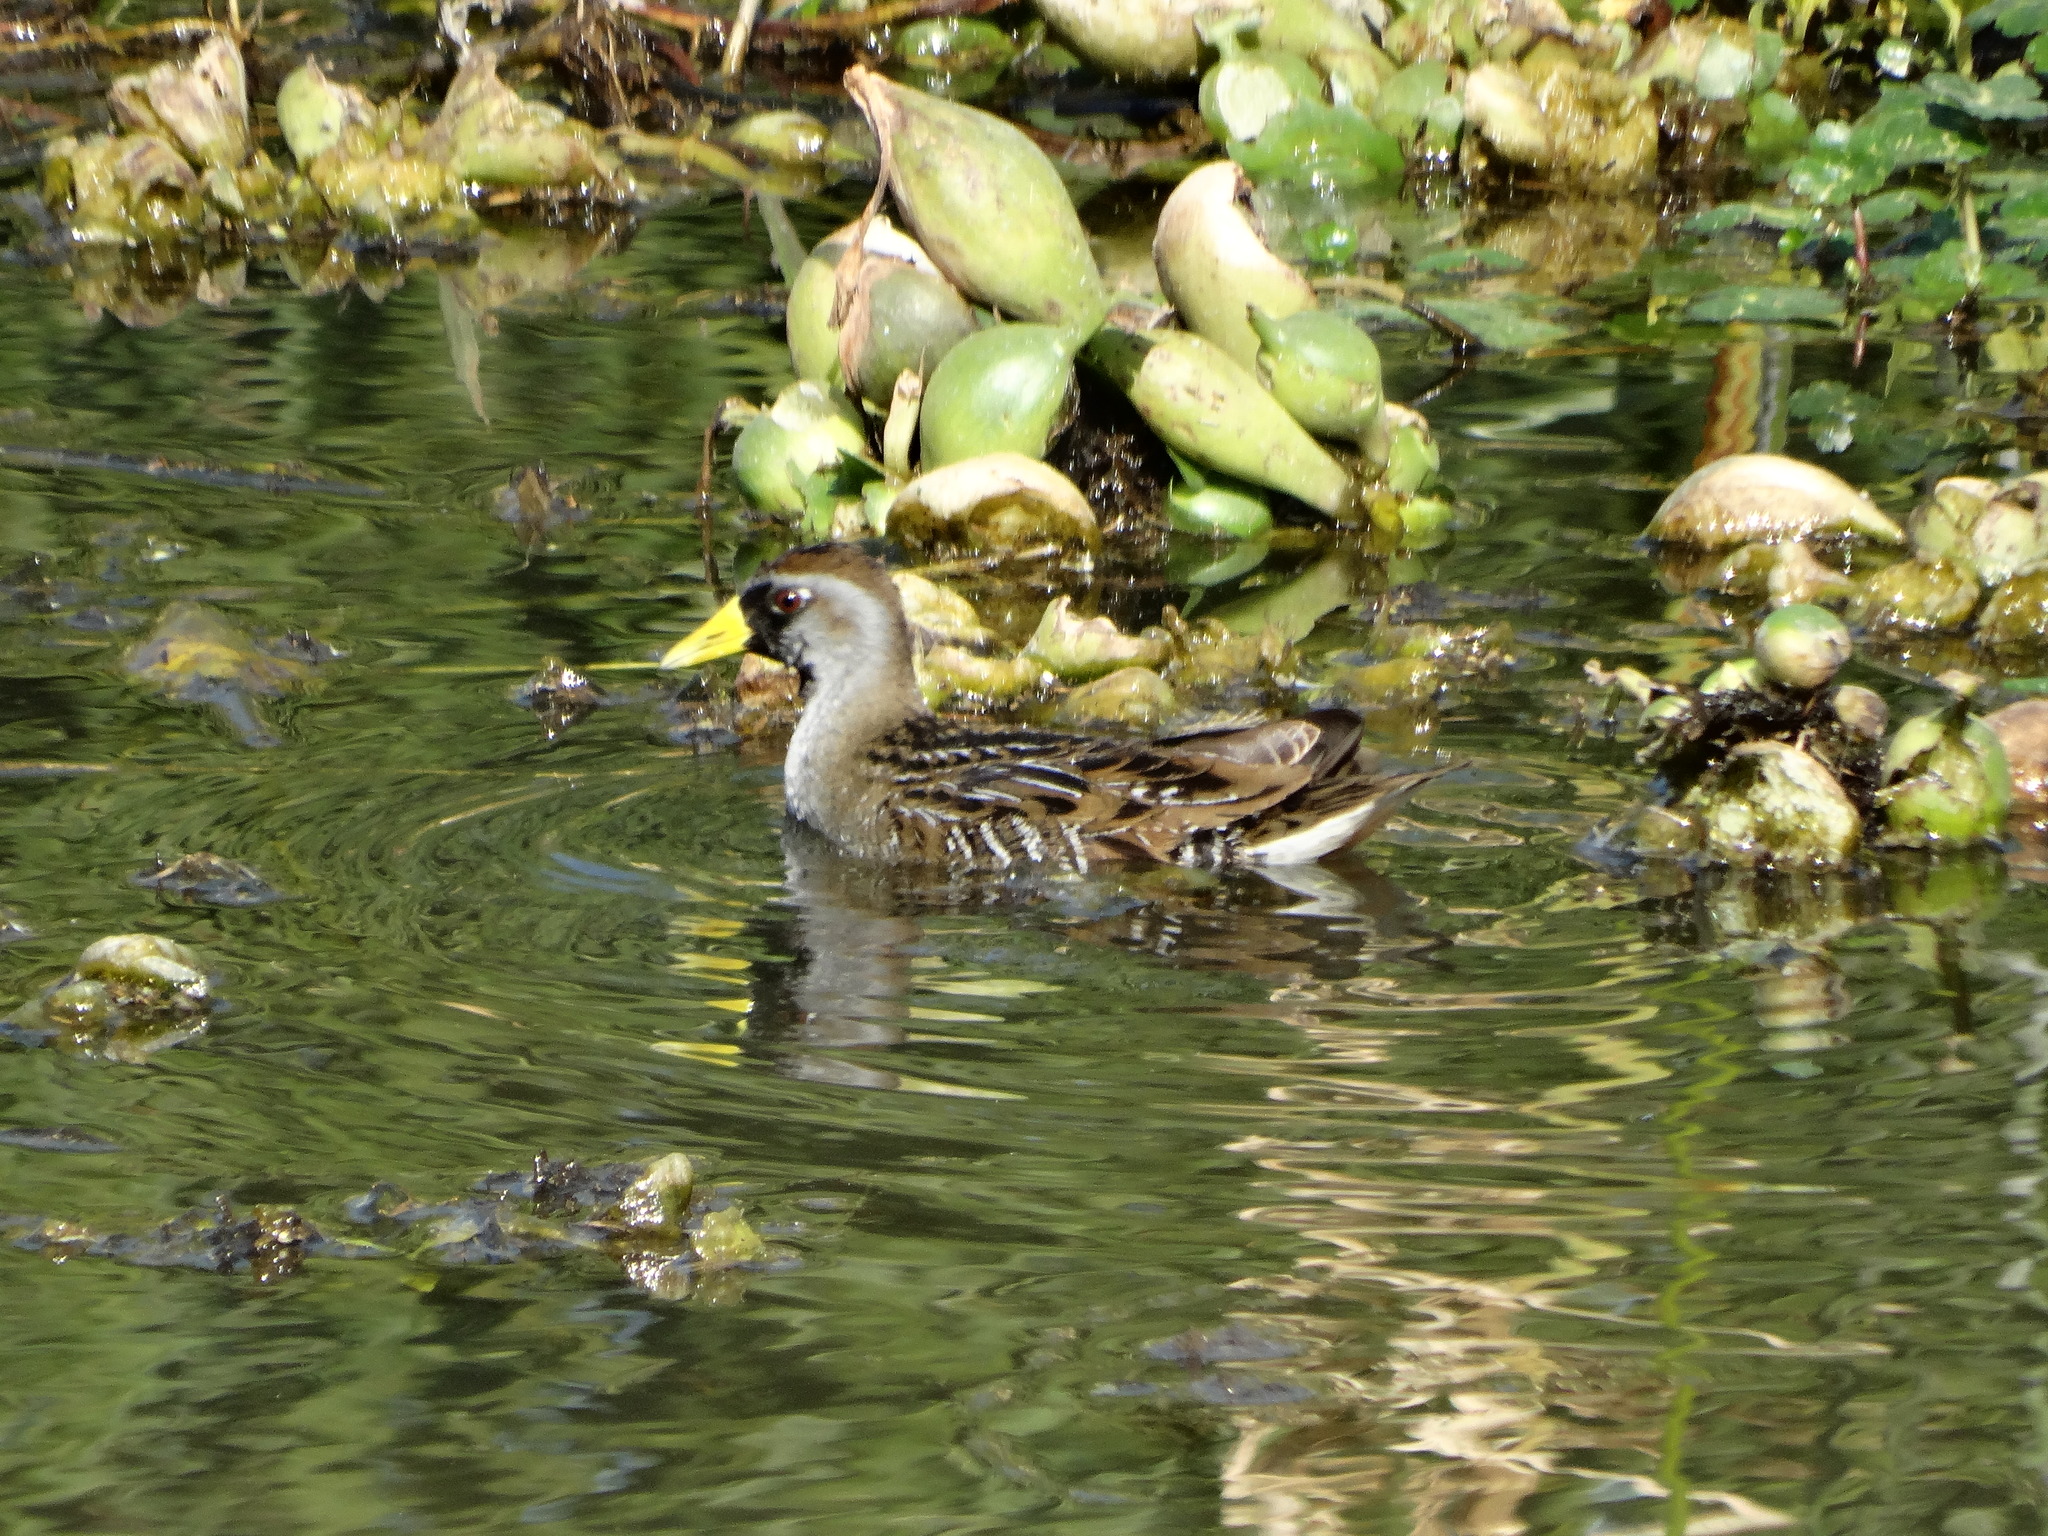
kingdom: Animalia
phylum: Chordata
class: Aves
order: Gruiformes
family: Rallidae
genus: Porzana
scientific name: Porzana carolina
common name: Sora
